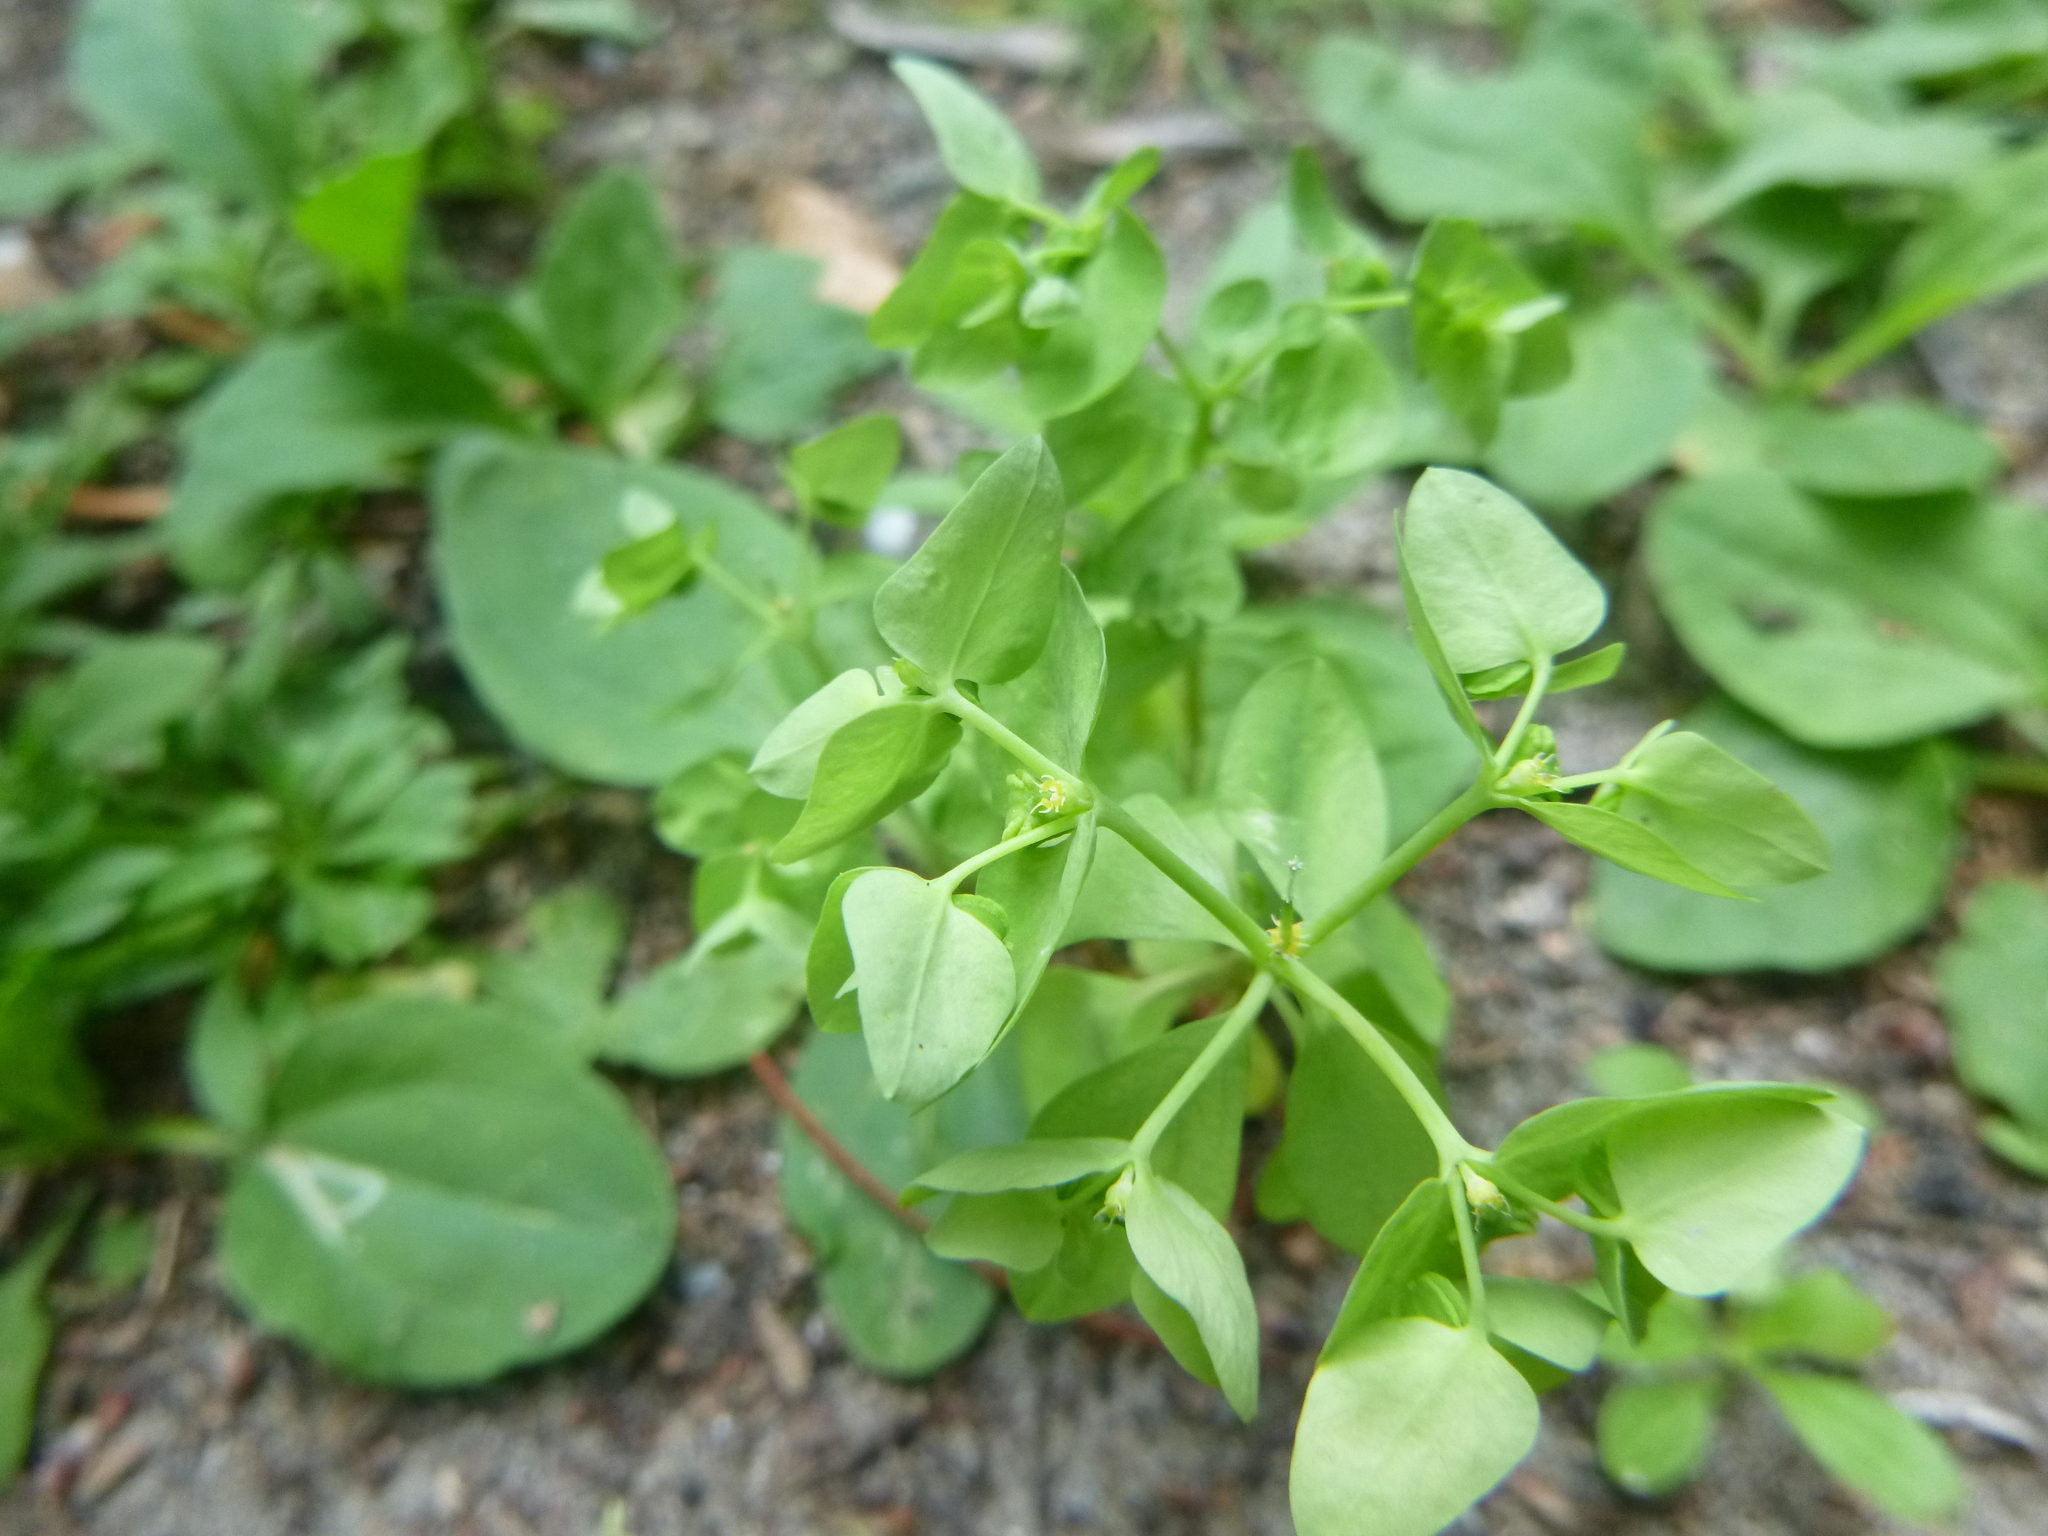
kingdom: Plantae
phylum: Tracheophyta
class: Magnoliopsida
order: Malpighiales
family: Euphorbiaceae
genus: Euphorbia
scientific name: Euphorbia peplus
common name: Petty spurge
